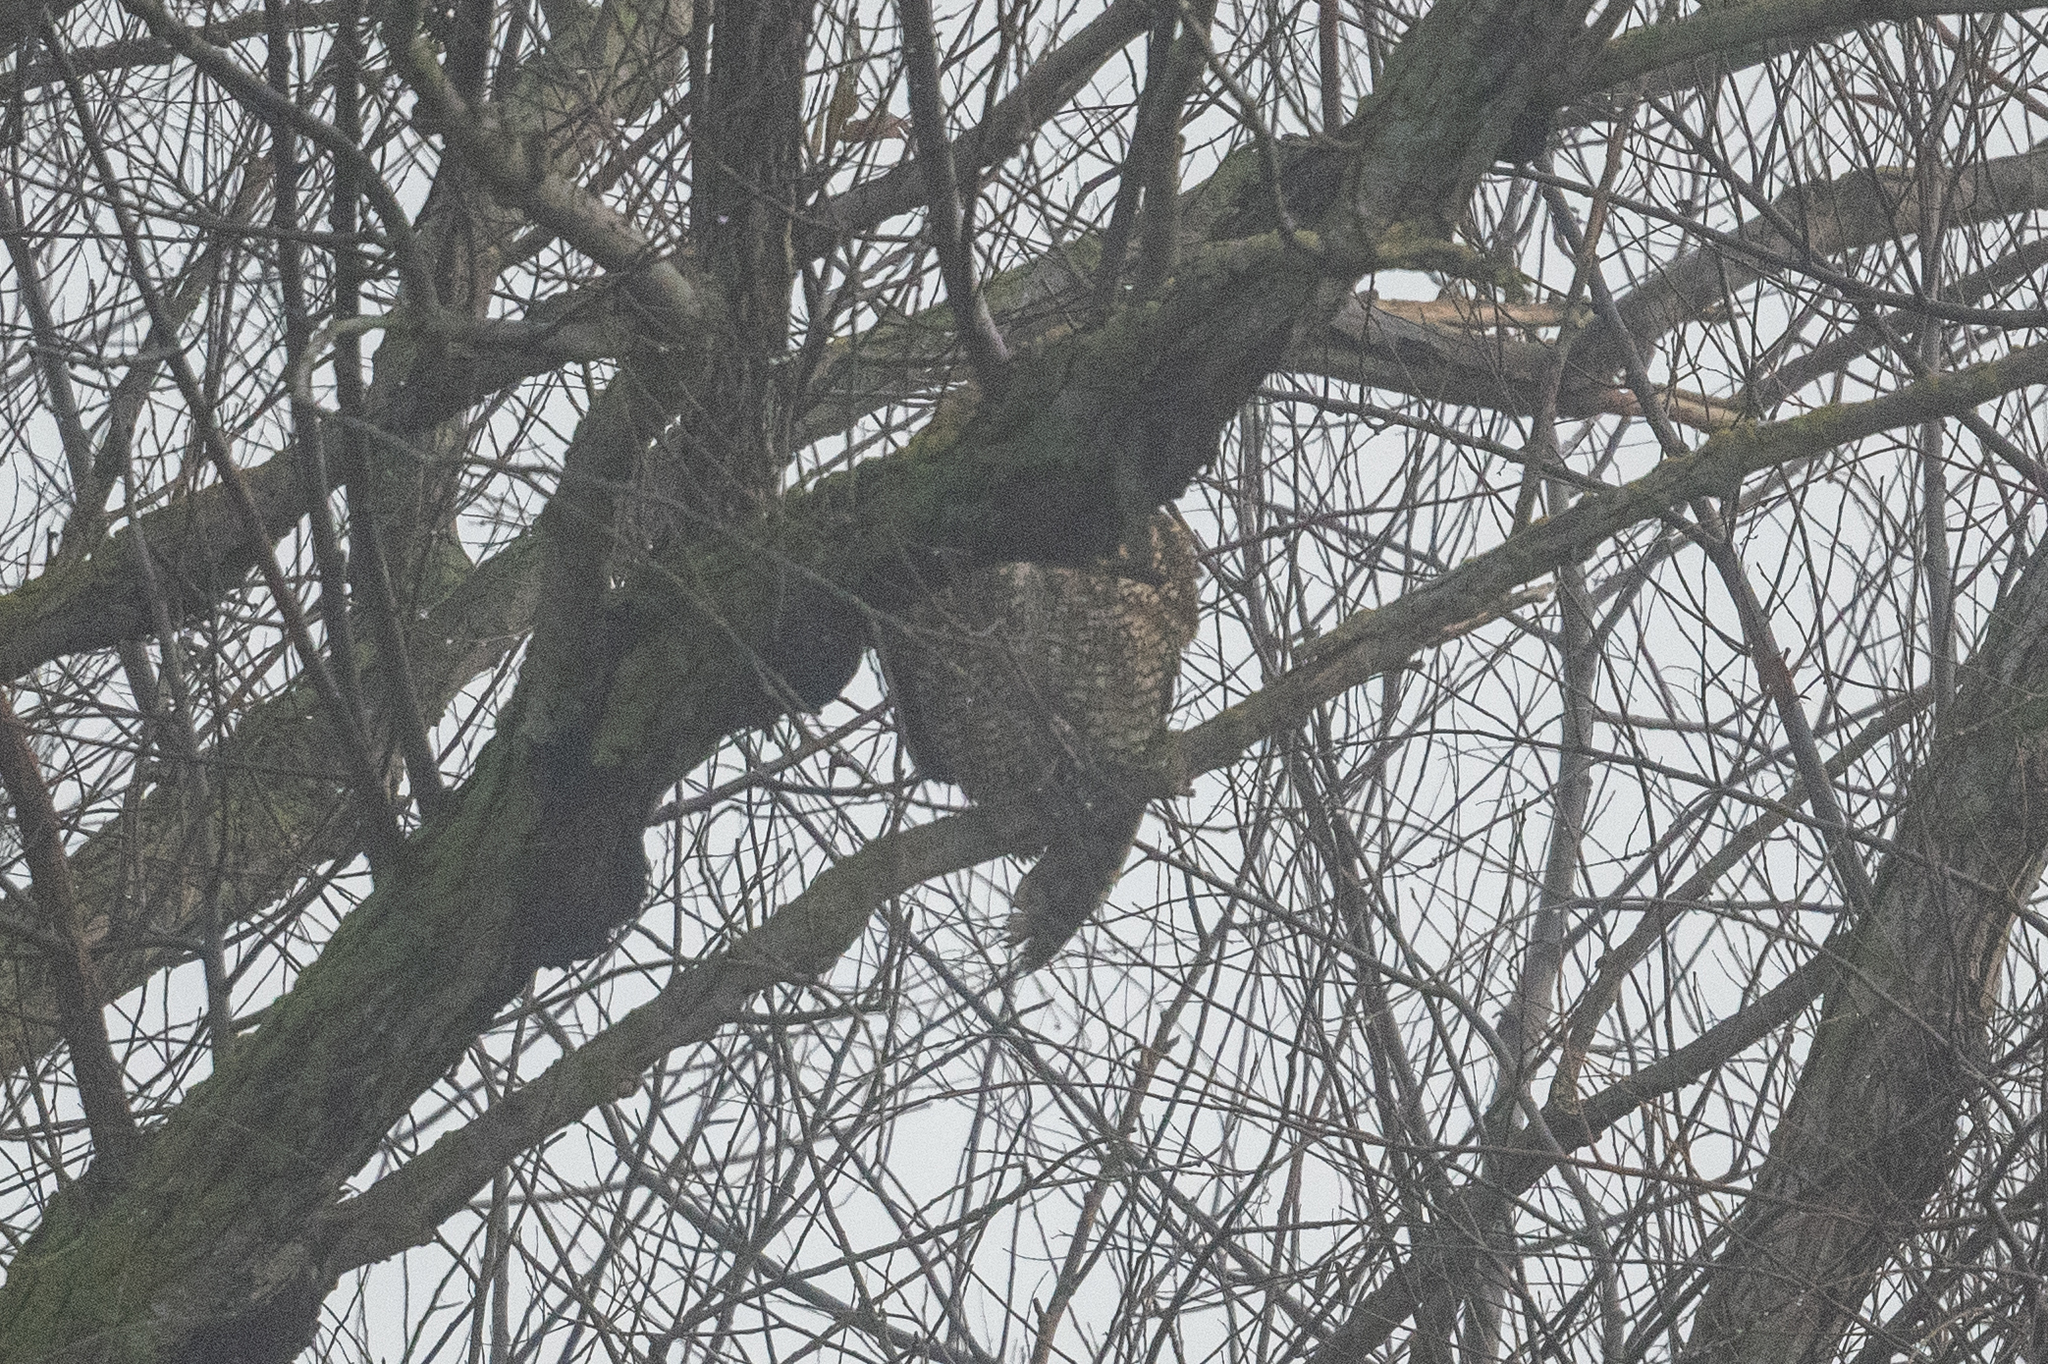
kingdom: Animalia
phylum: Chordata
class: Aves
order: Strigiformes
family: Strigidae
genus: Bubo
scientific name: Bubo virginianus
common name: Great horned owl
